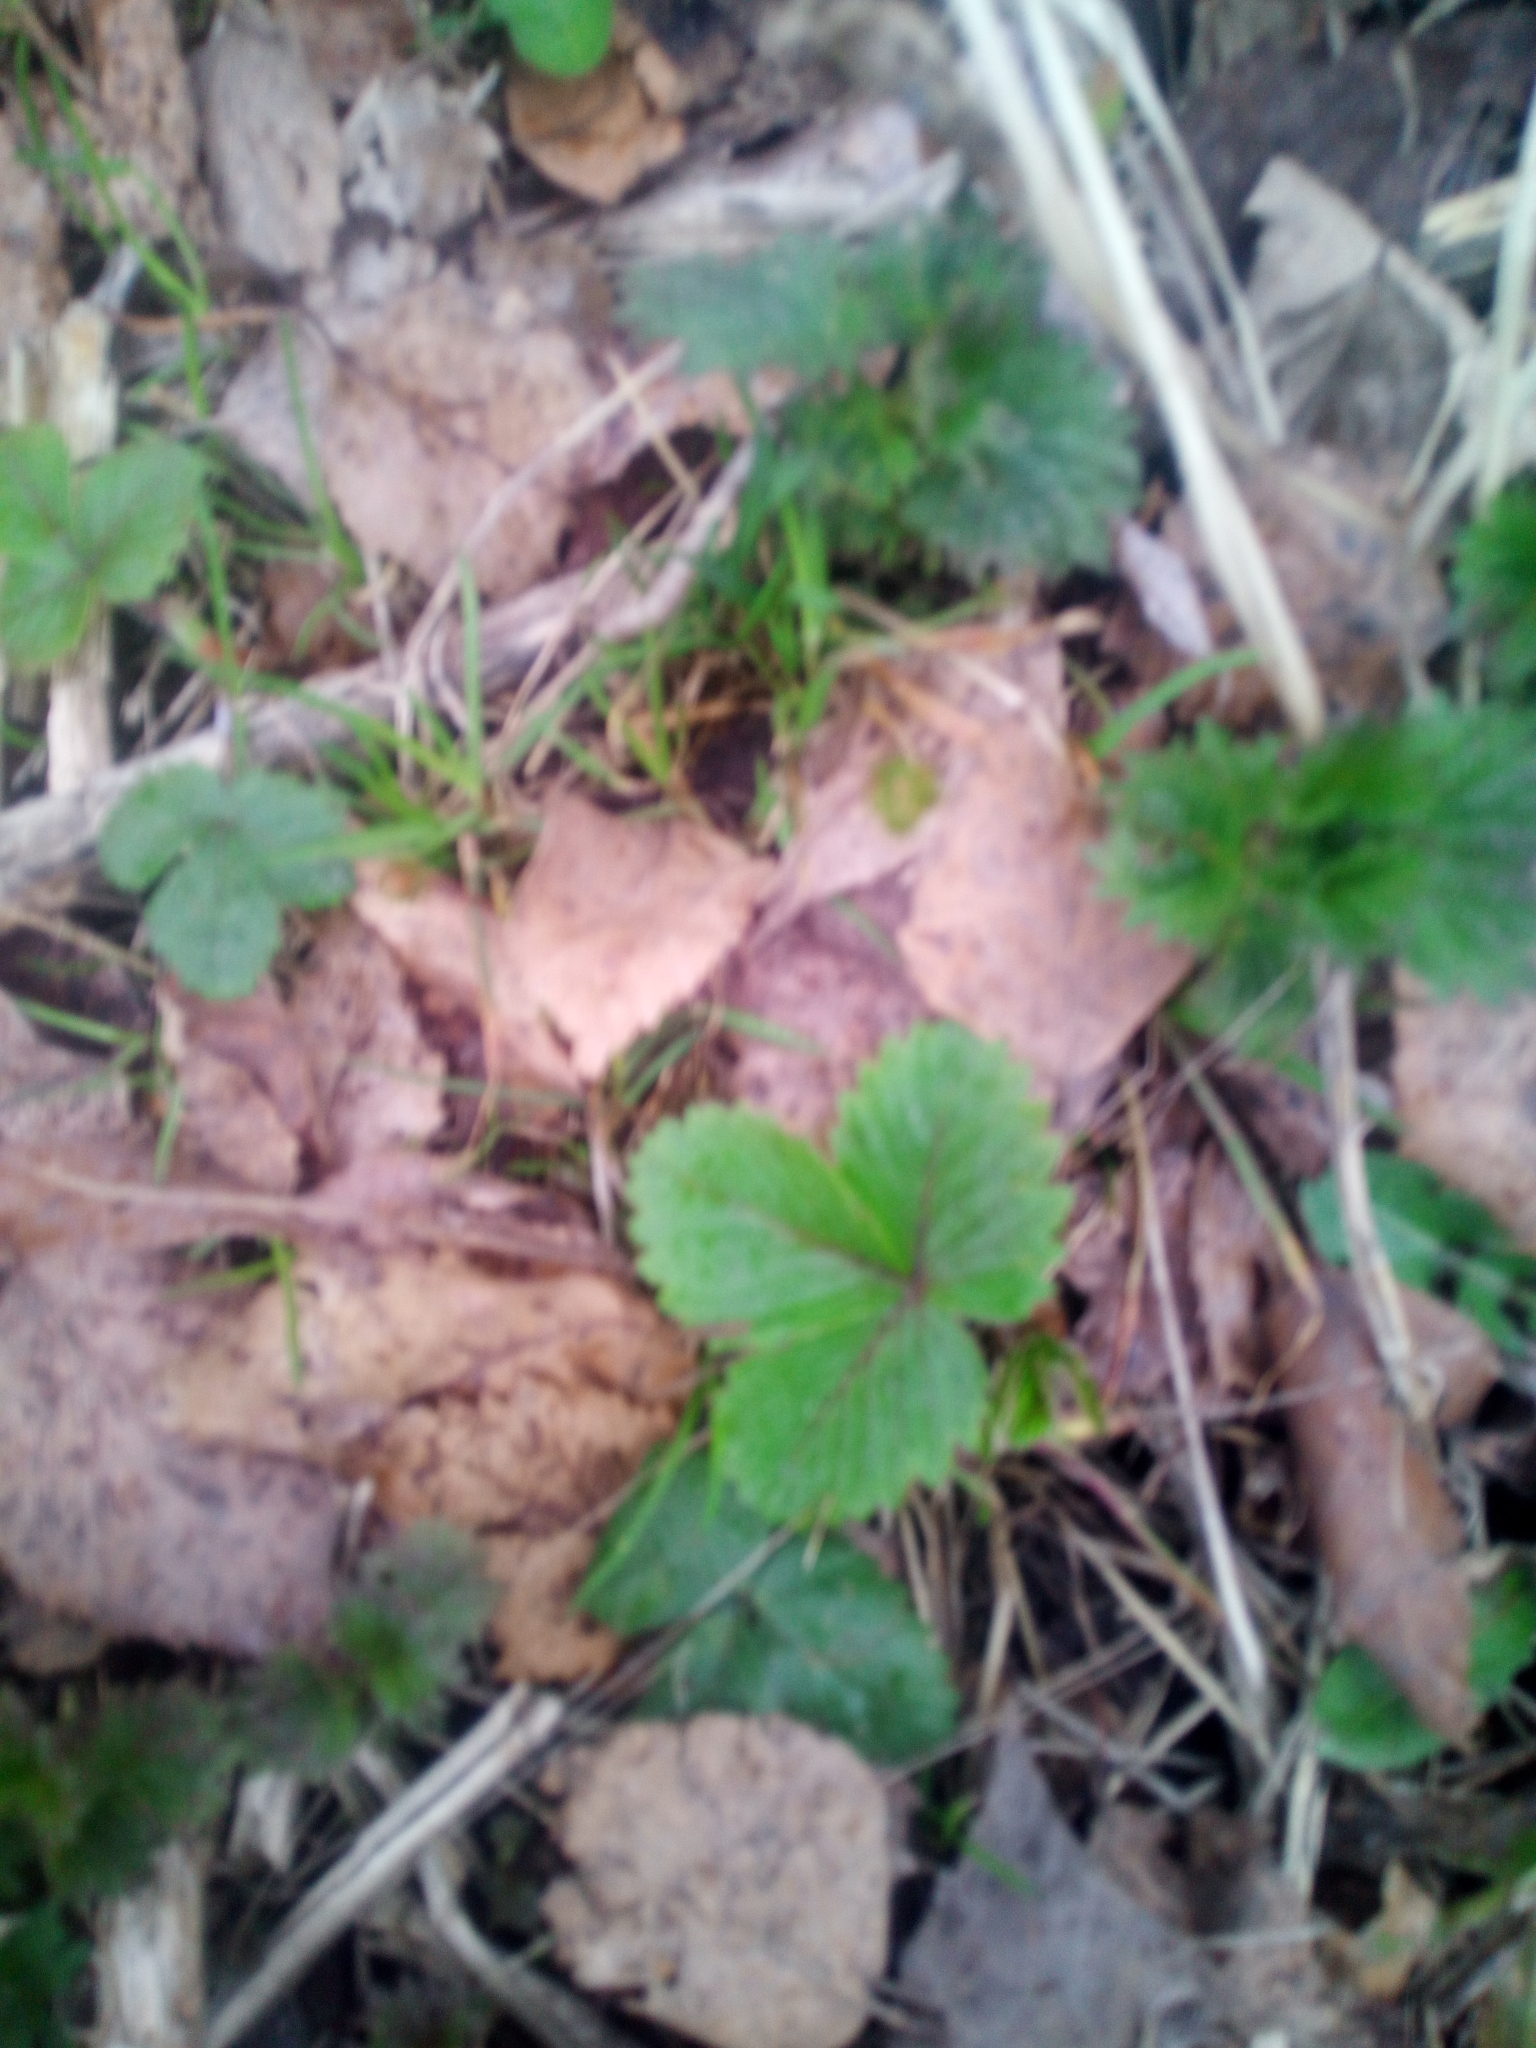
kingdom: Plantae
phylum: Tracheophyta
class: Magnoliopsida
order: Rosales
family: Rosaceae
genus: Fragaria
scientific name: Fragaria vesca
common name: Wild strawberry
